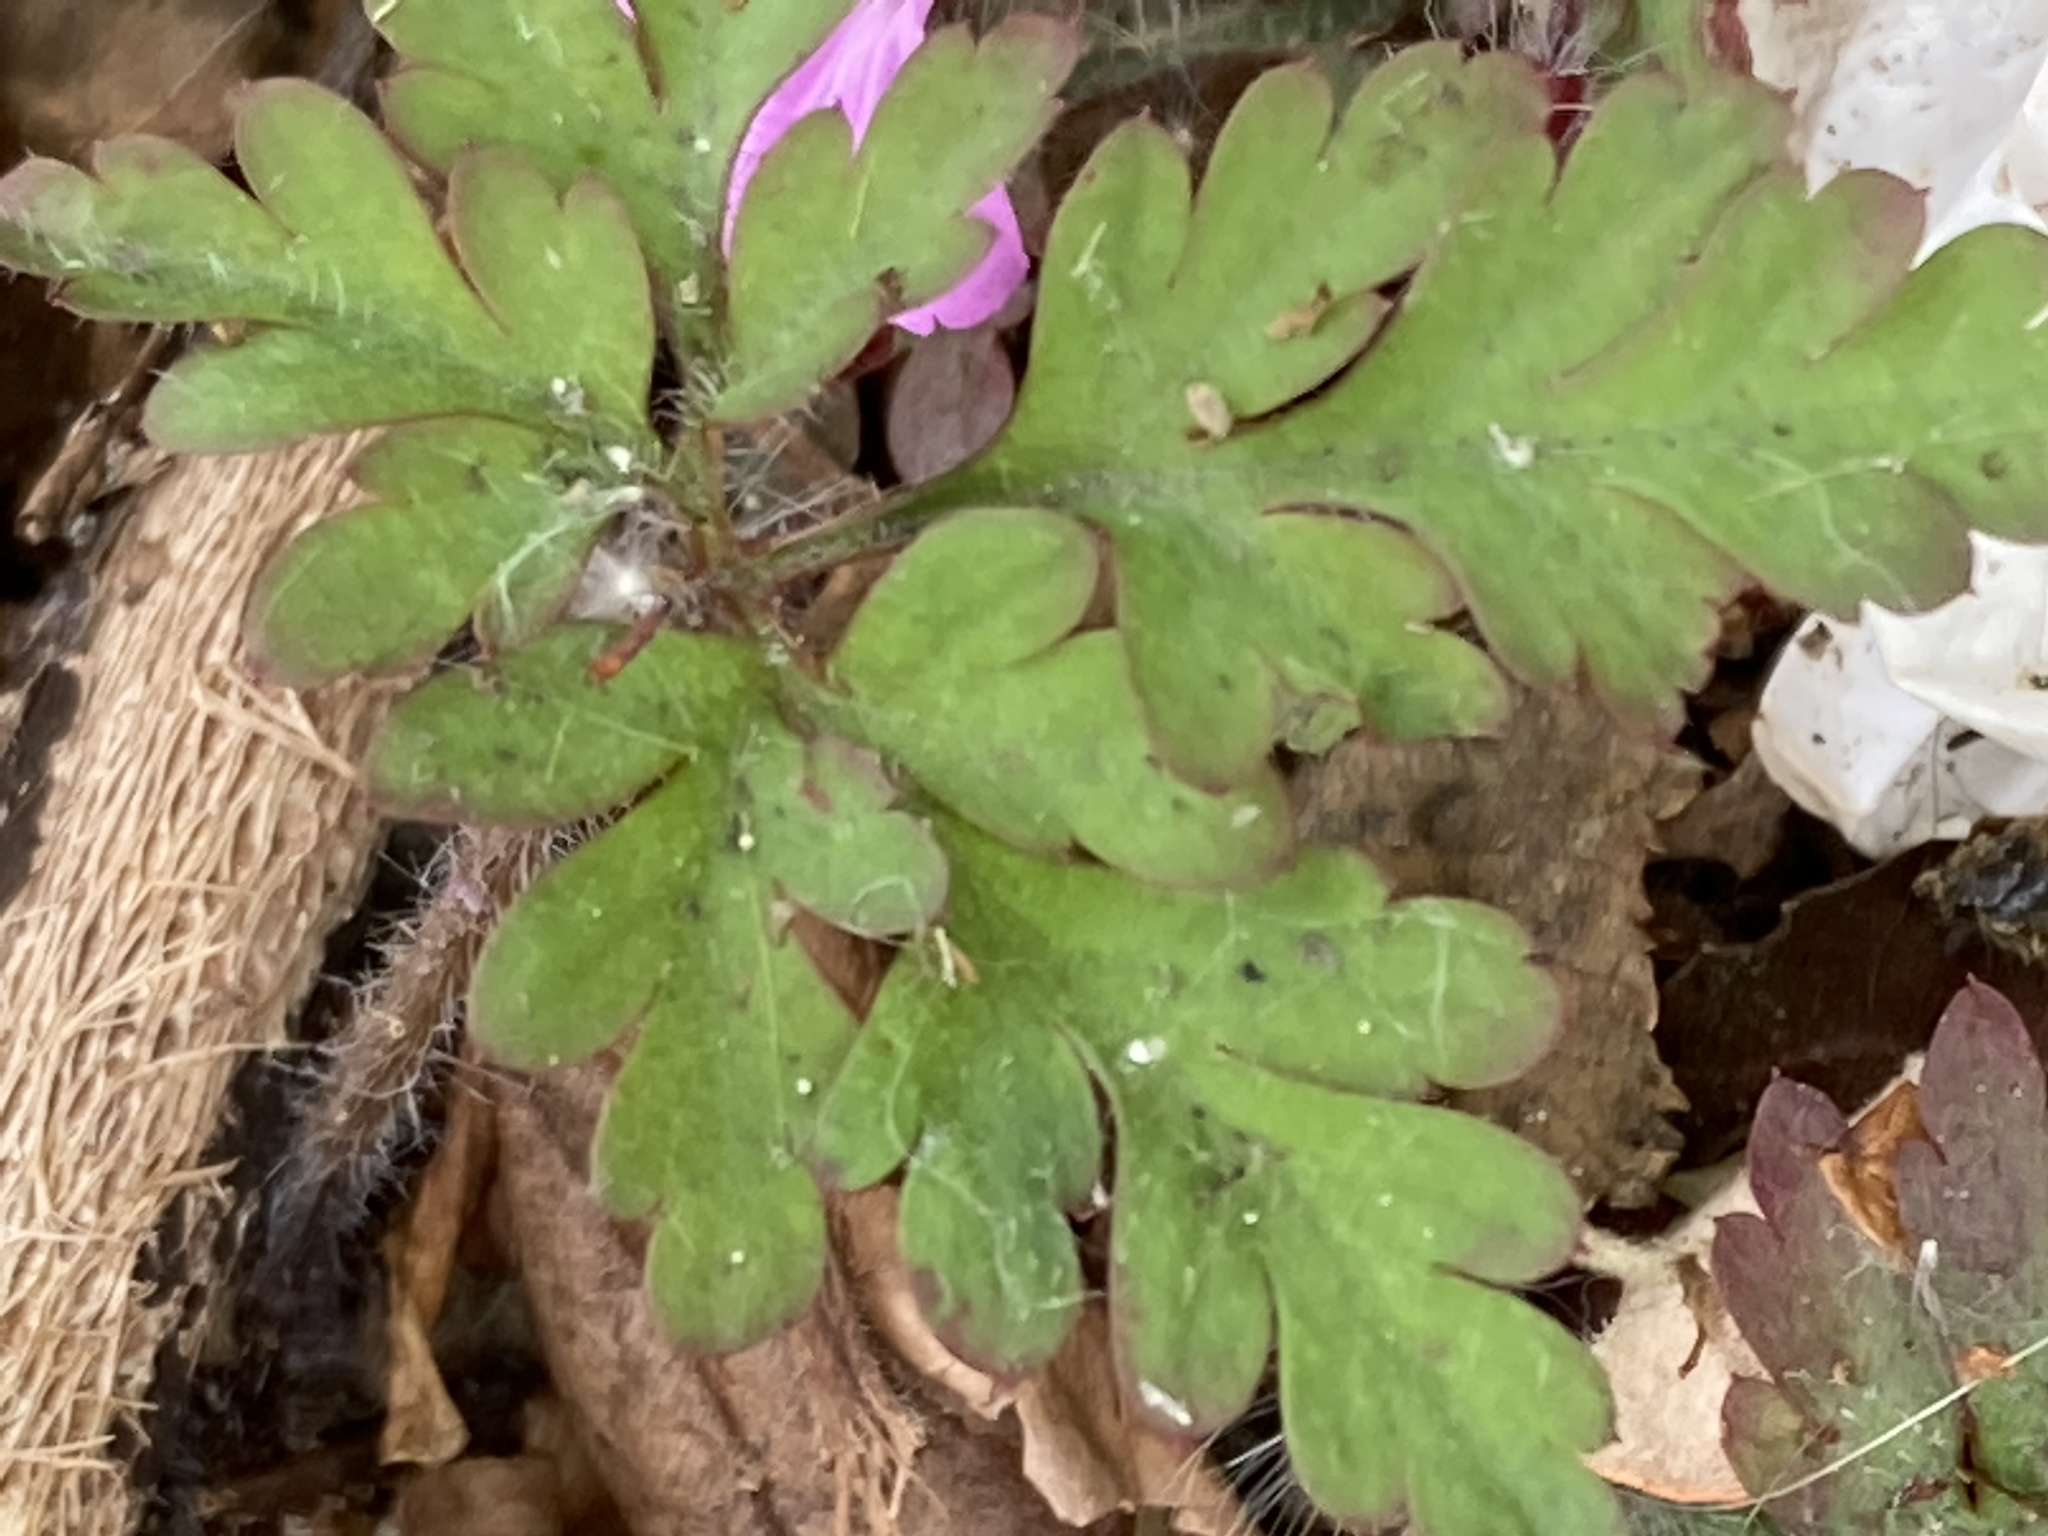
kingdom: Plantae
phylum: Tracheophyta
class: Magnoliopsida
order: Geraniales
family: Geraniaceae
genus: Geranium
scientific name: Geranium robertianum
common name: Herb-robert
